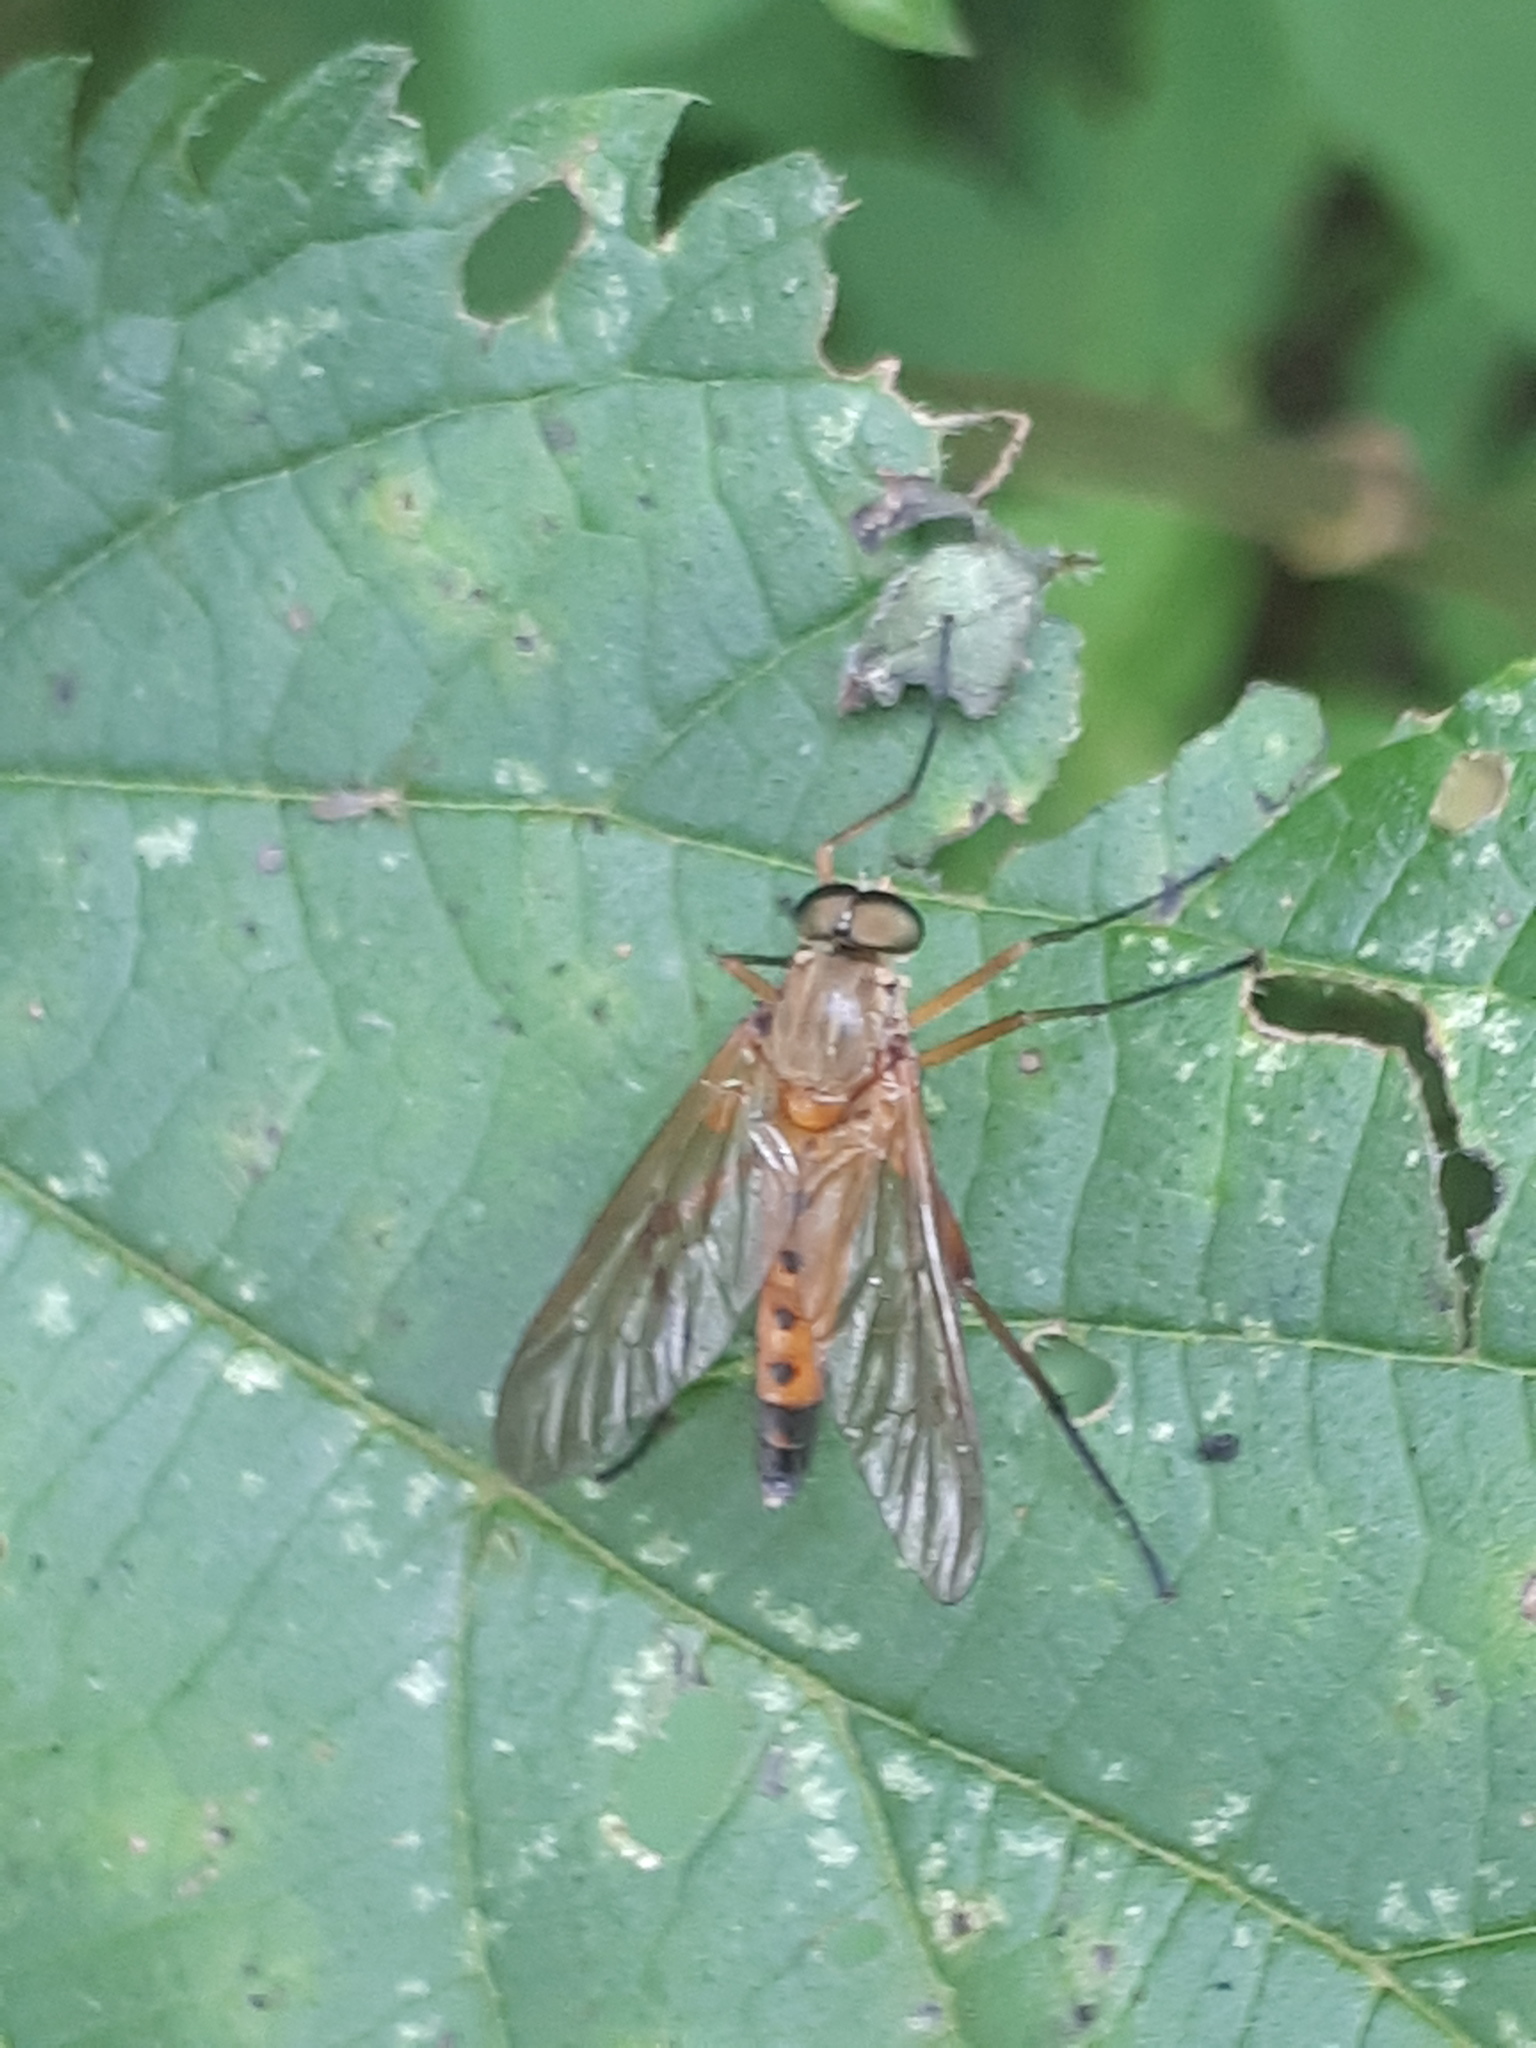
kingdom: Animalia
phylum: Arthropoda
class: Insecta
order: Diptera
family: Rhagionidae
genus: Rhagio
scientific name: Rhagio tringaria
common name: Marsh snipefly
